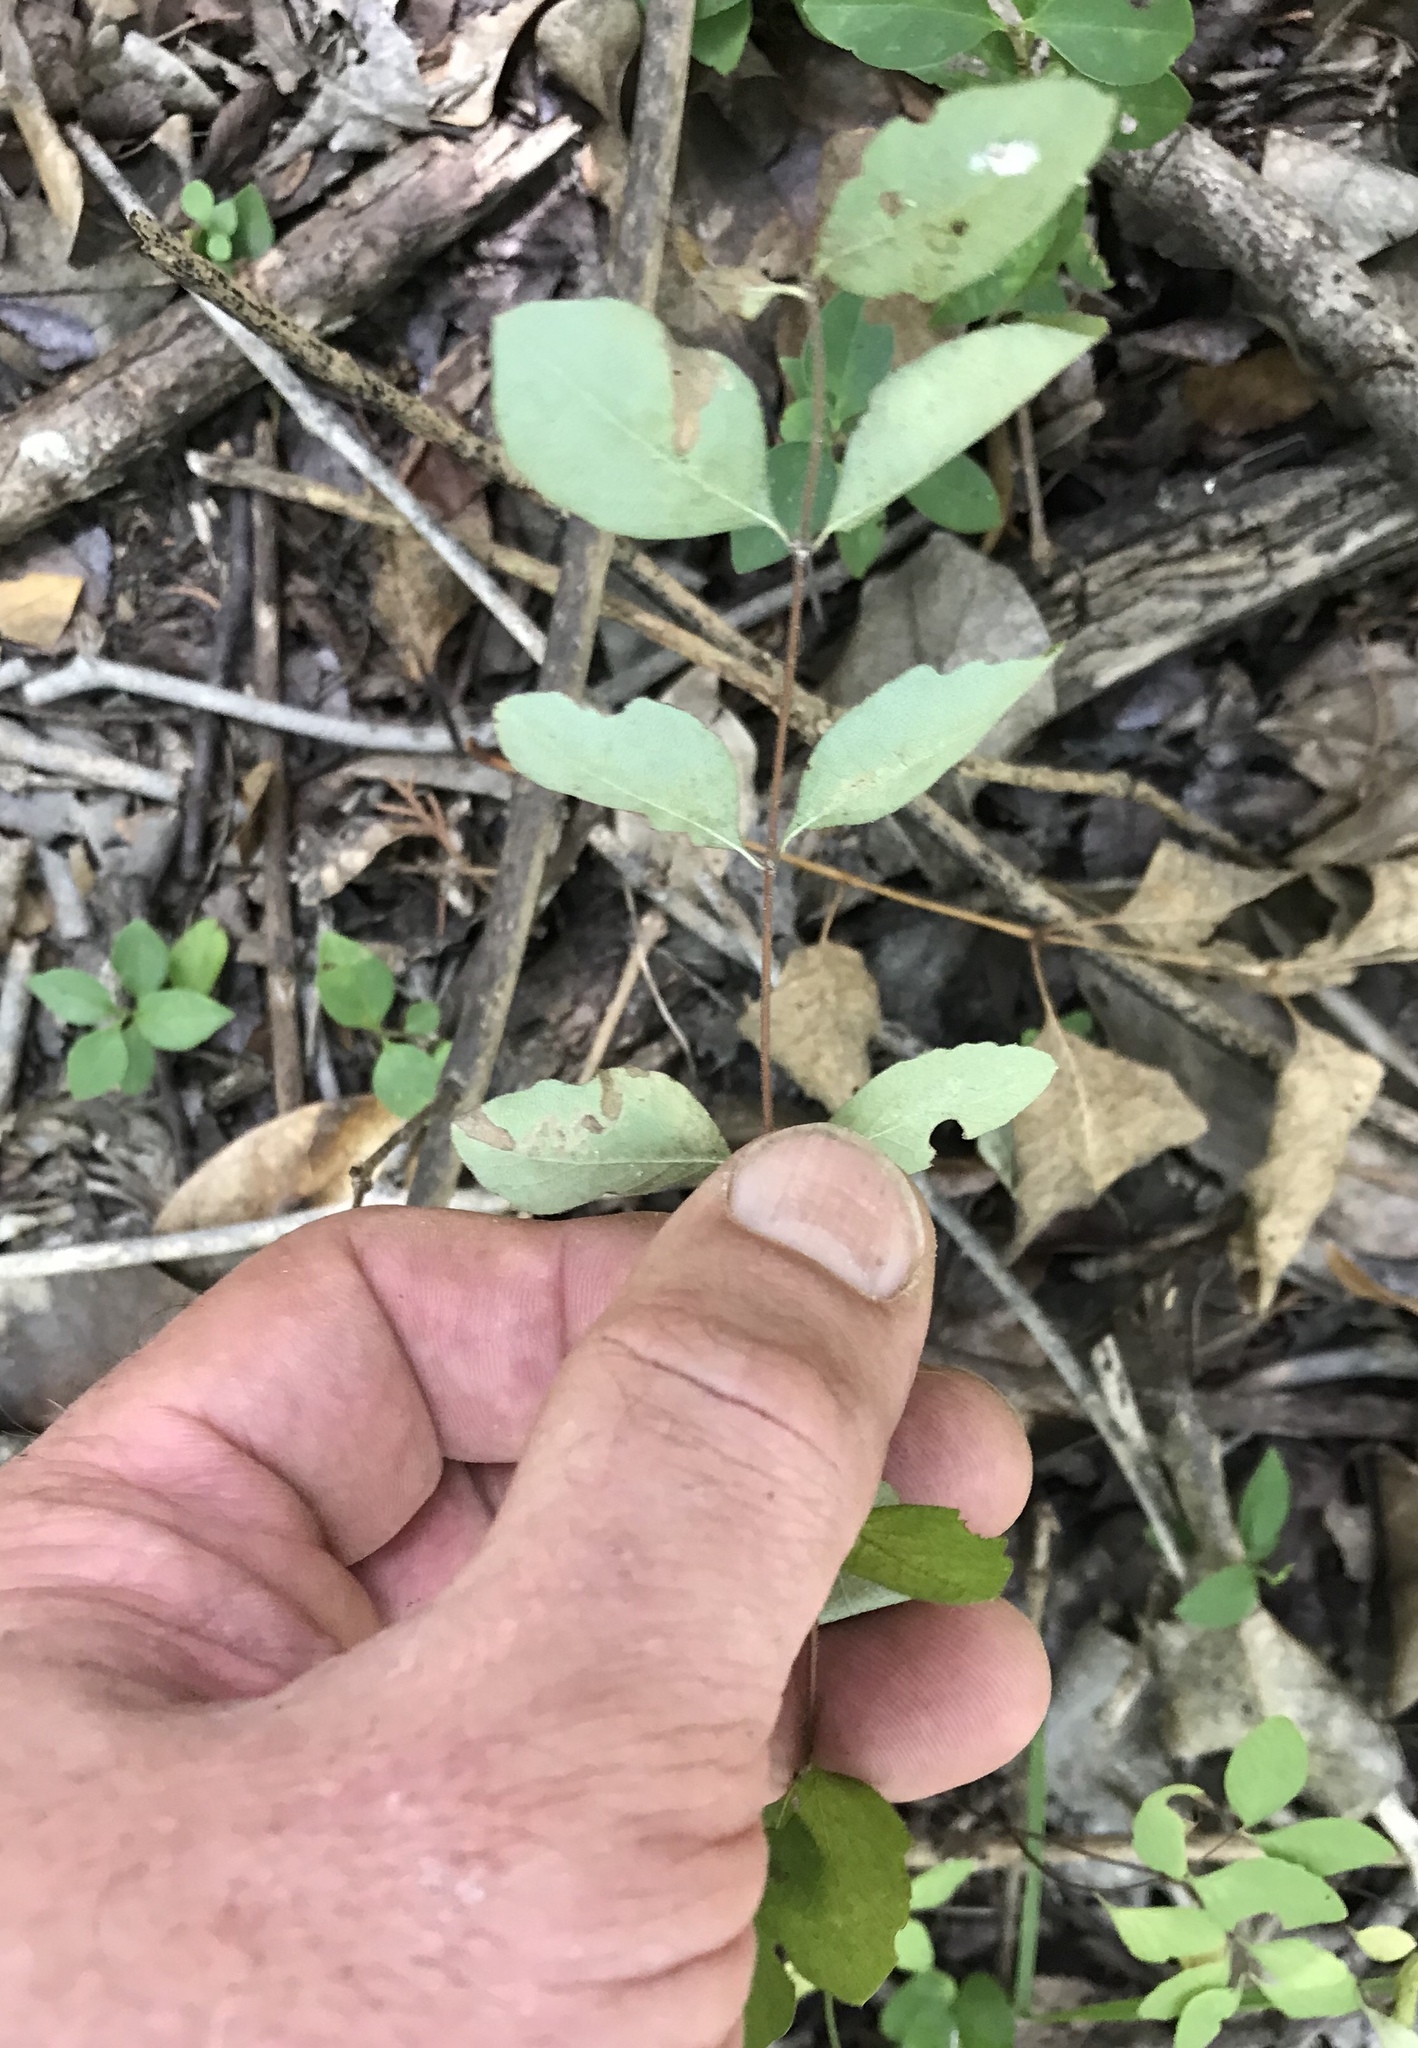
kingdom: Plantae
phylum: Tracheophyta
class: Magnoliopsida
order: Dipsacales
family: Caprifoliaceae
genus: Symphoricarpos
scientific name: Symphoricarpos orbiculatus
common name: Coralberry
